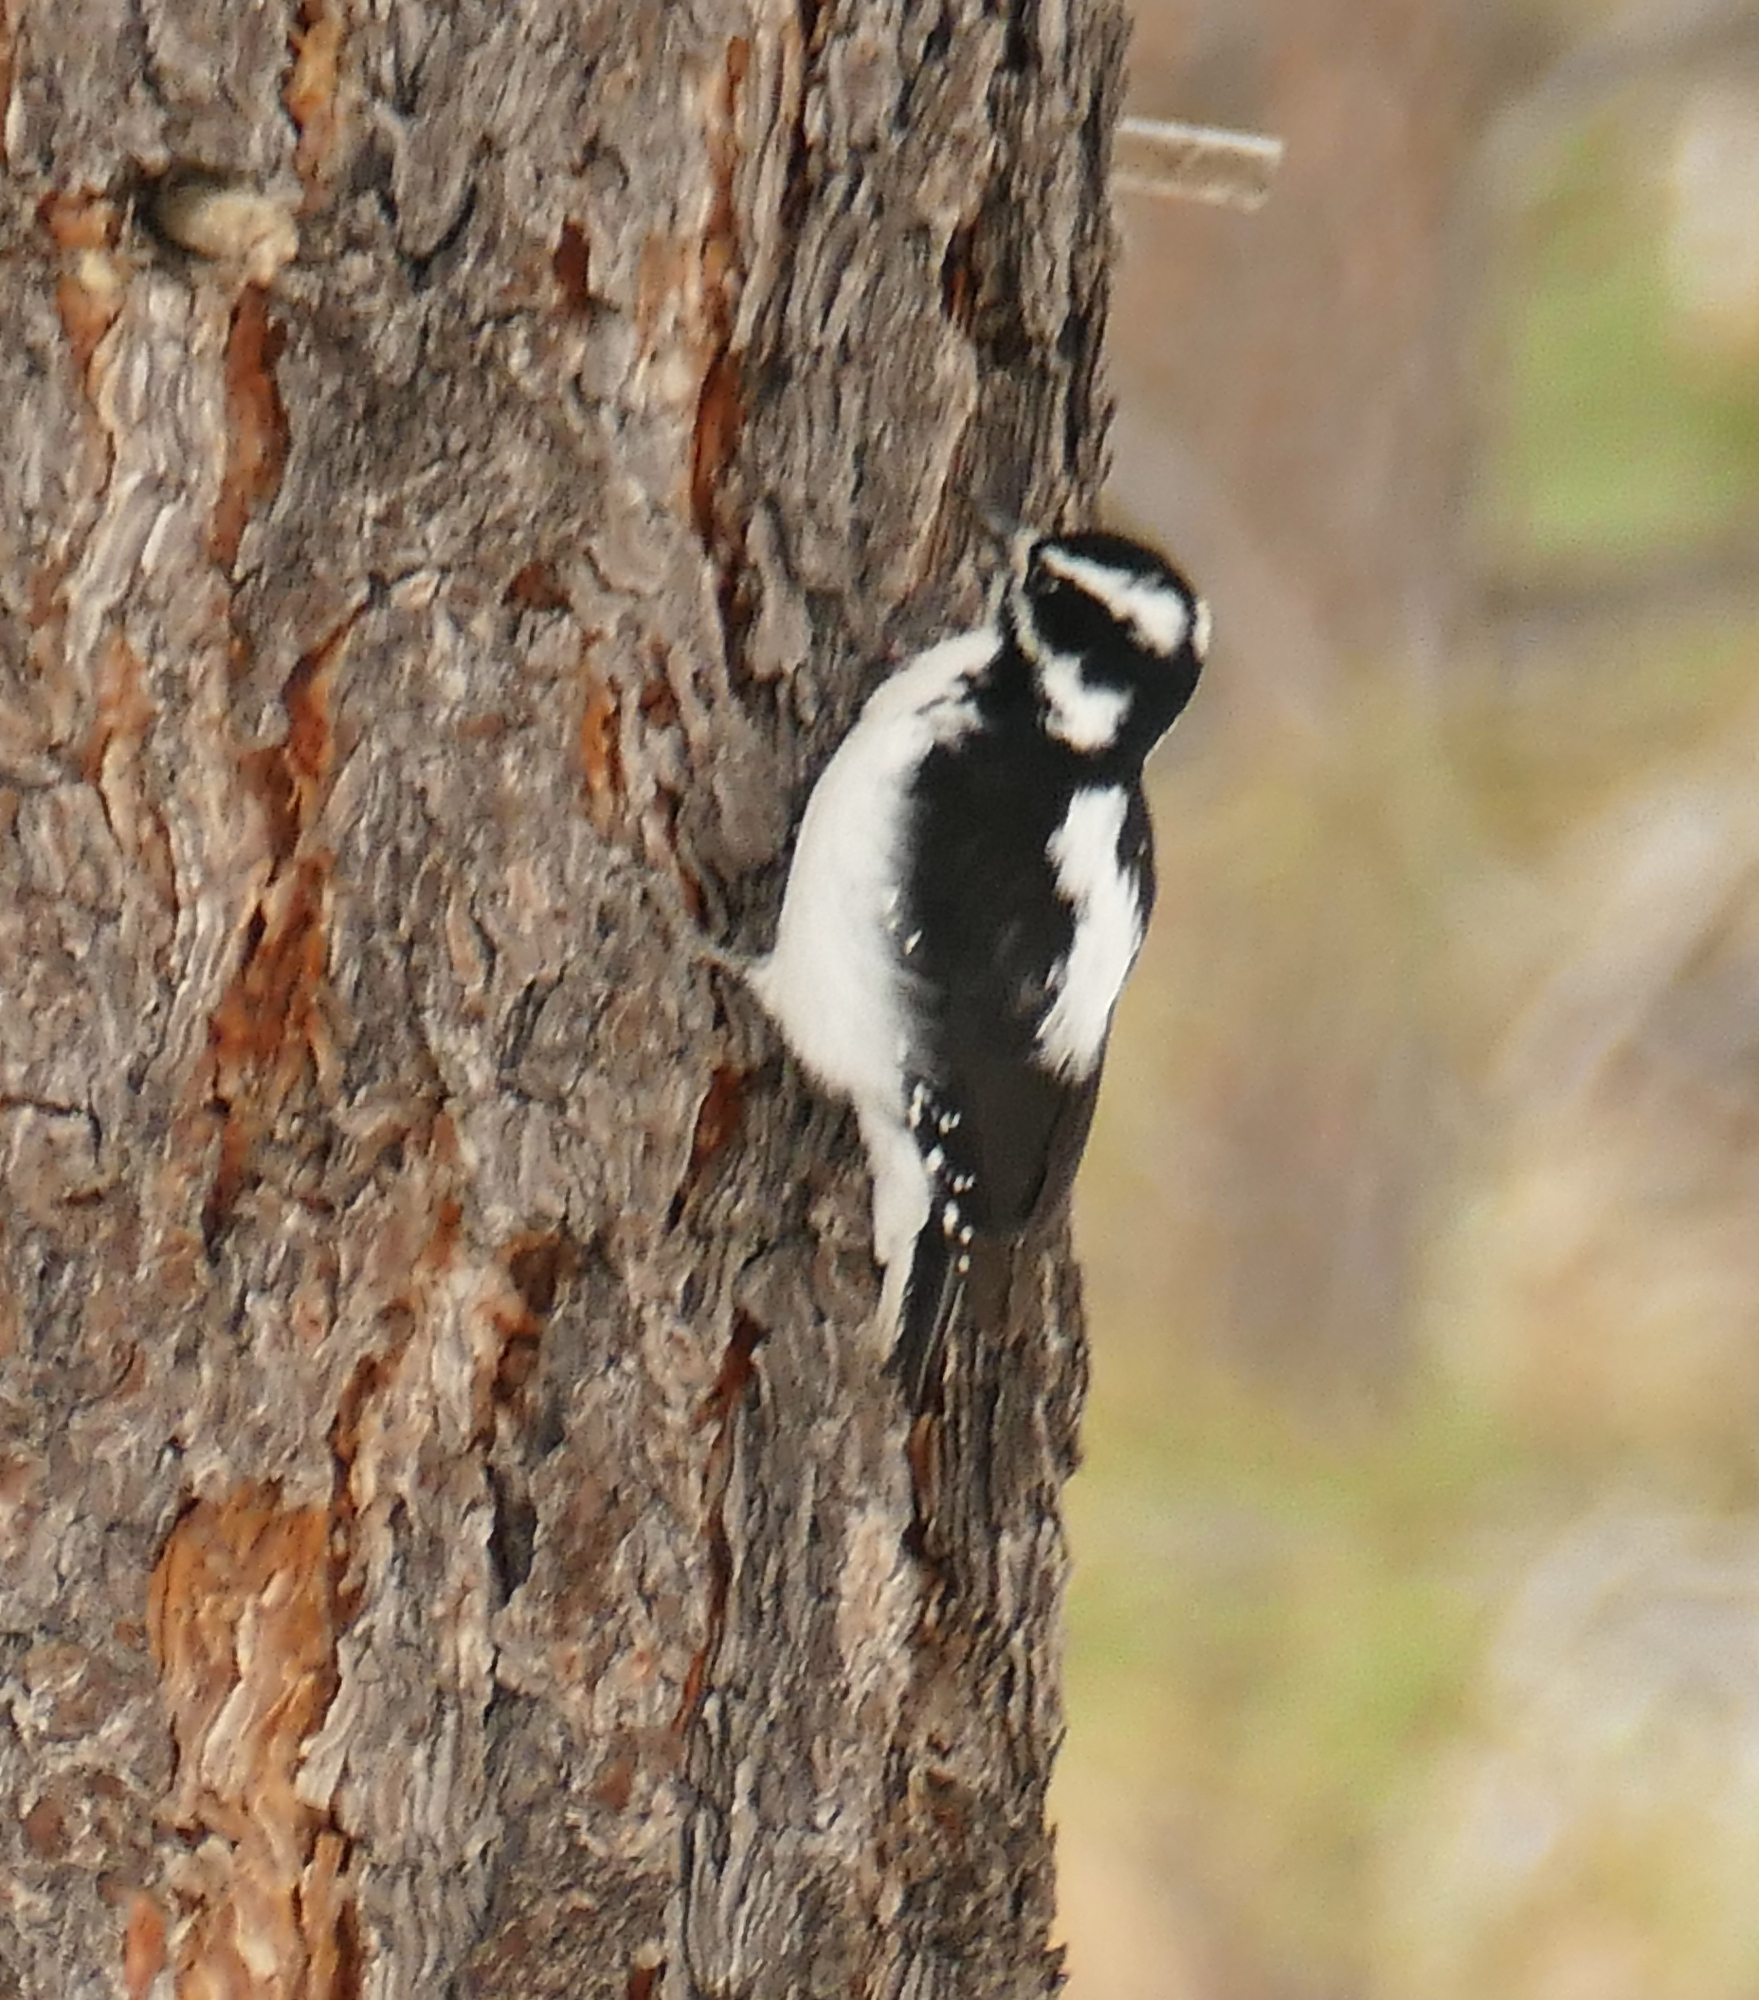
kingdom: Animalia
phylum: Chordata
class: Aves
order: Piciformes
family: Picidae
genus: Leuconotopicus
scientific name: Leuconotopicus villosus
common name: Hairy woodpecker
